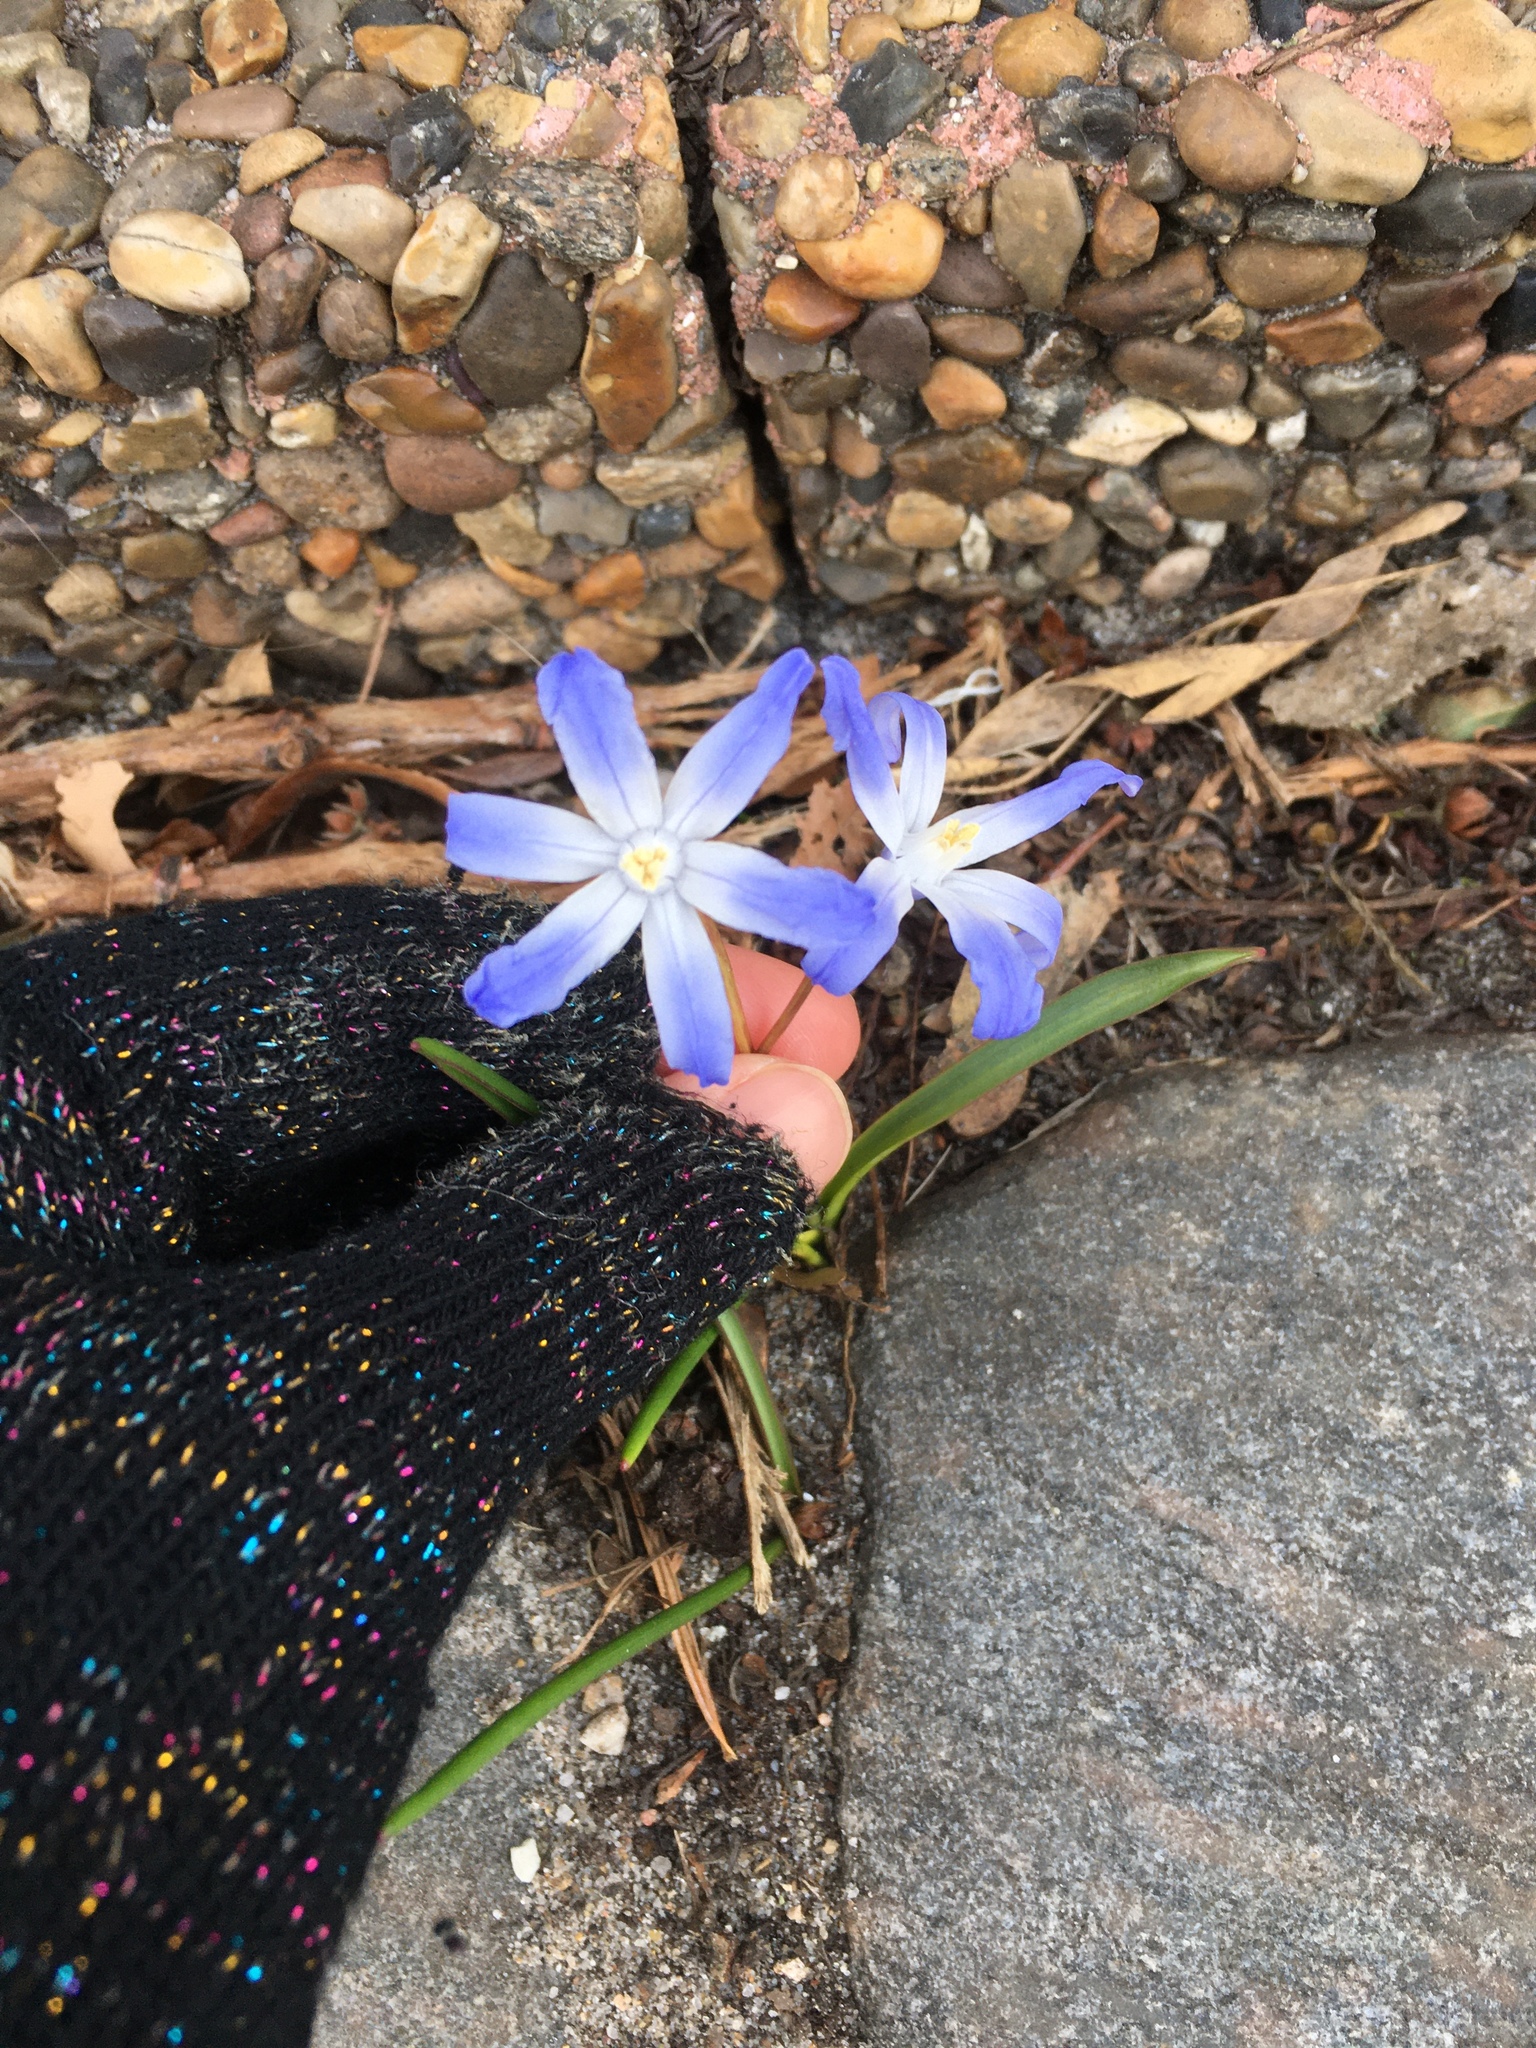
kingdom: Plantae
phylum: Tracheophyta
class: Liliopsida
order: Asparagales
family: Asparagaceae
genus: Scilla
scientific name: Scilla luciliae
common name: Boissier's glory-of-the-snow
